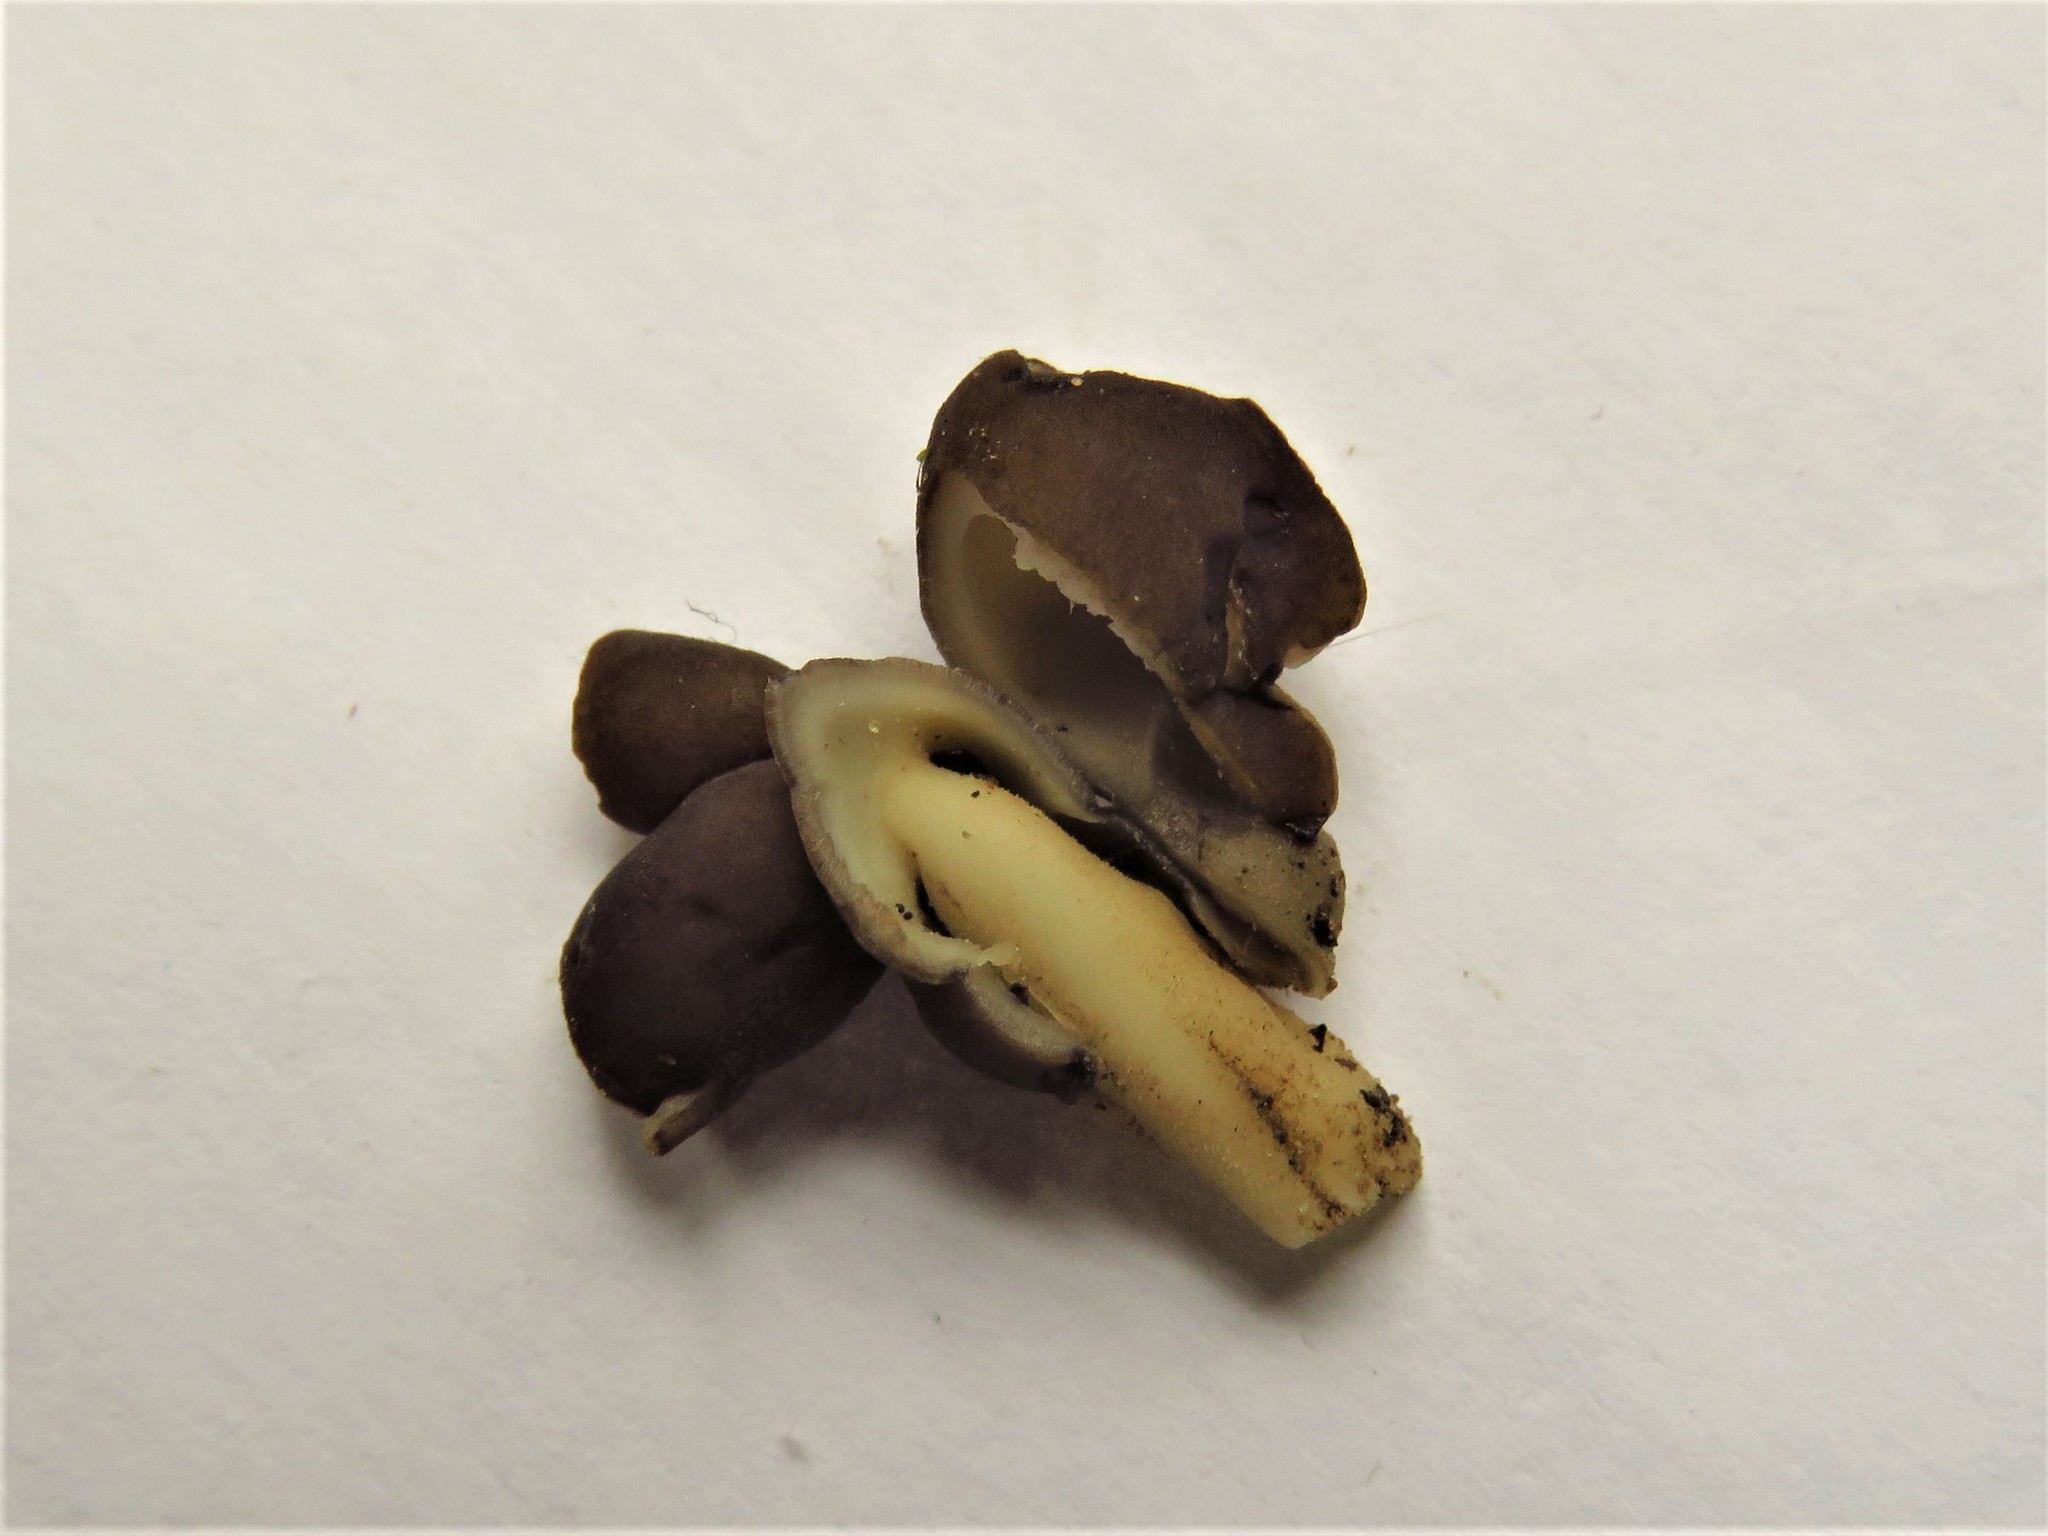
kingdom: Fungi
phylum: Ascomycota
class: Pezizomycetes
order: Pezizales
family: Helvellaceae
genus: Helvella
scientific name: Helvella compressa
